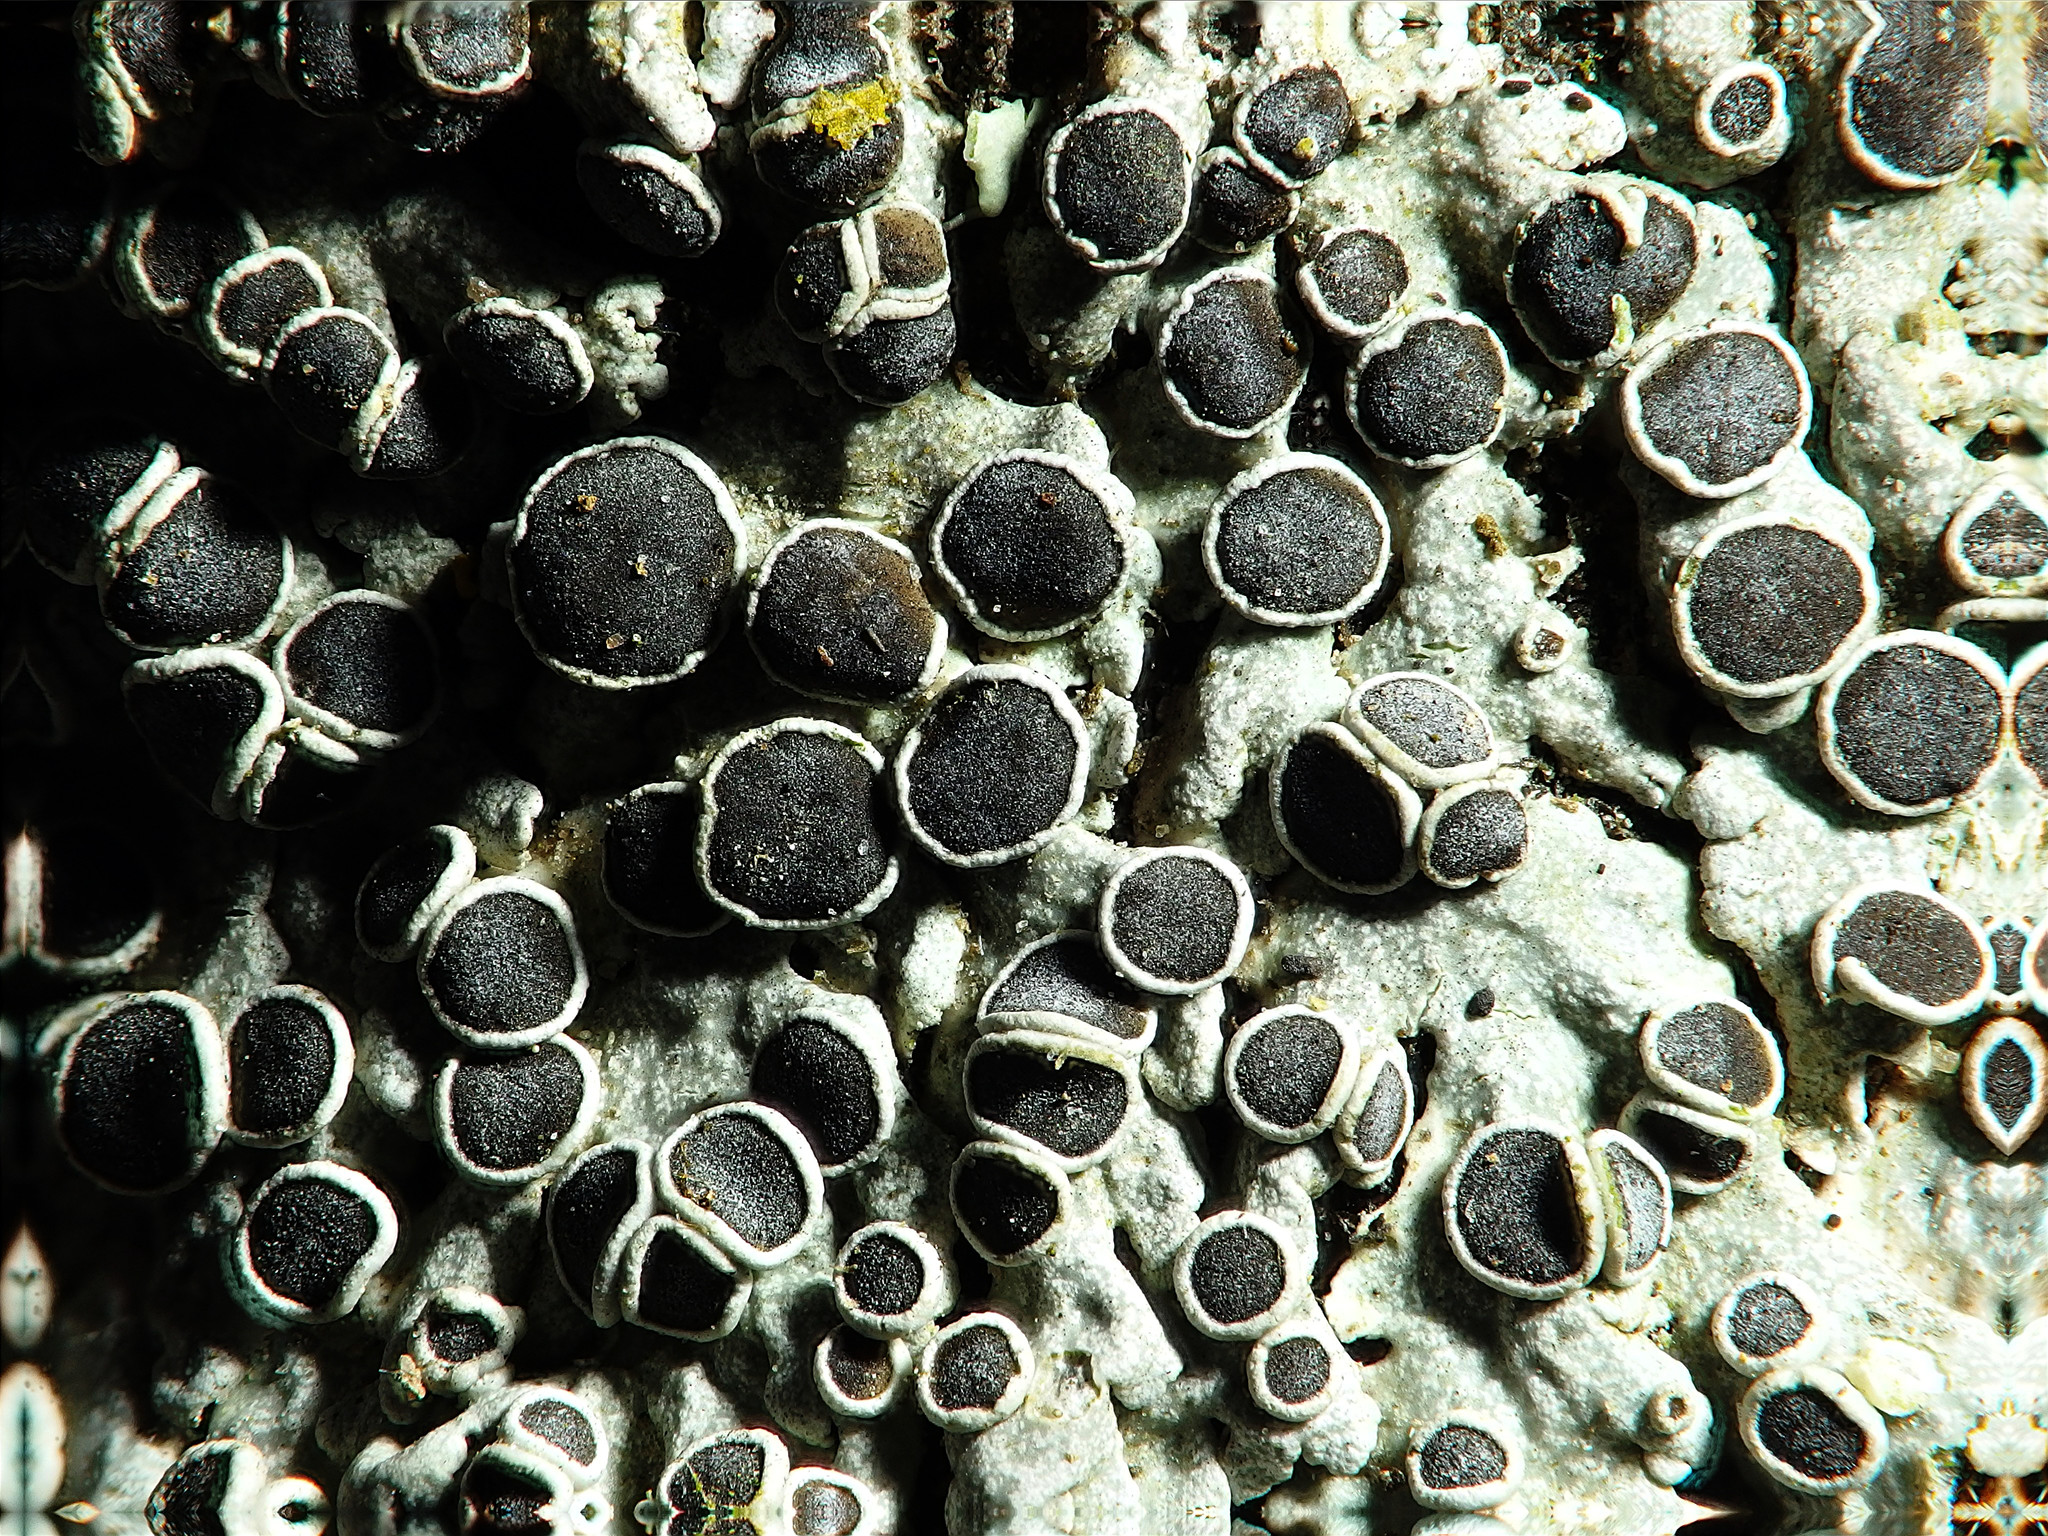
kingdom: Fungi
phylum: Ascomycota
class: Lecanoromycetes
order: Caliciales
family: Physciaceae
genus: Physcia
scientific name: Physcia aipolia
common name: Hoary rosette lichen
